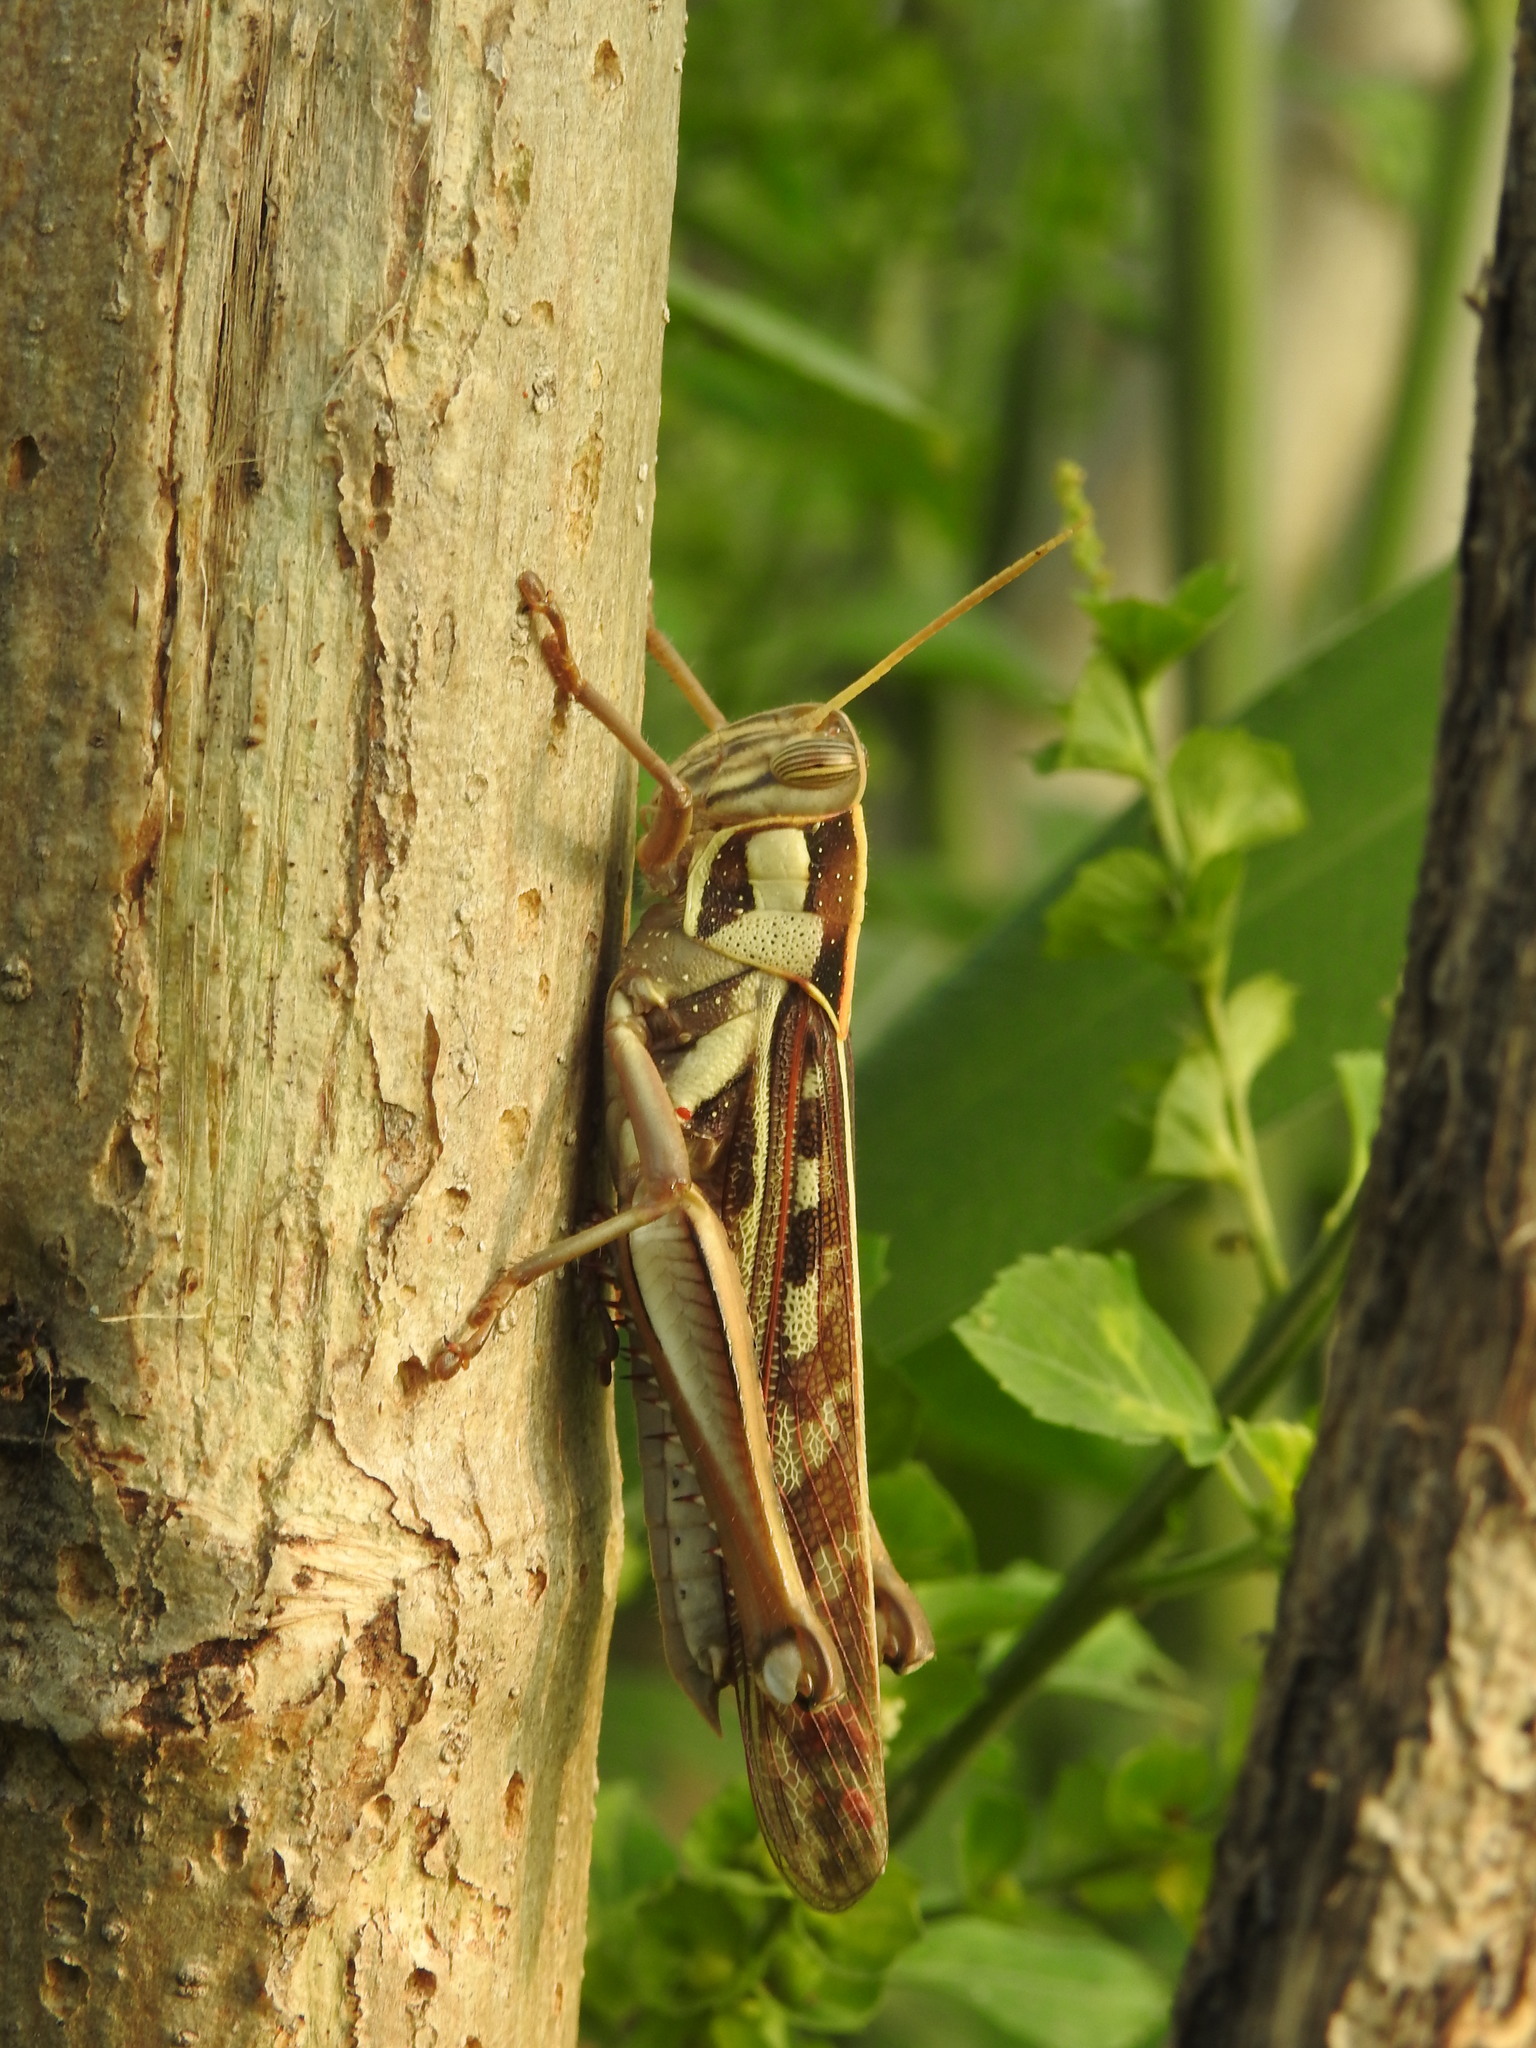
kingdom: Animalia
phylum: Arthropoda
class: Insecta
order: Orthoptera
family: Acrididae
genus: Cyrtacanthacris
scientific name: Cyrtacanthacris tatarica
